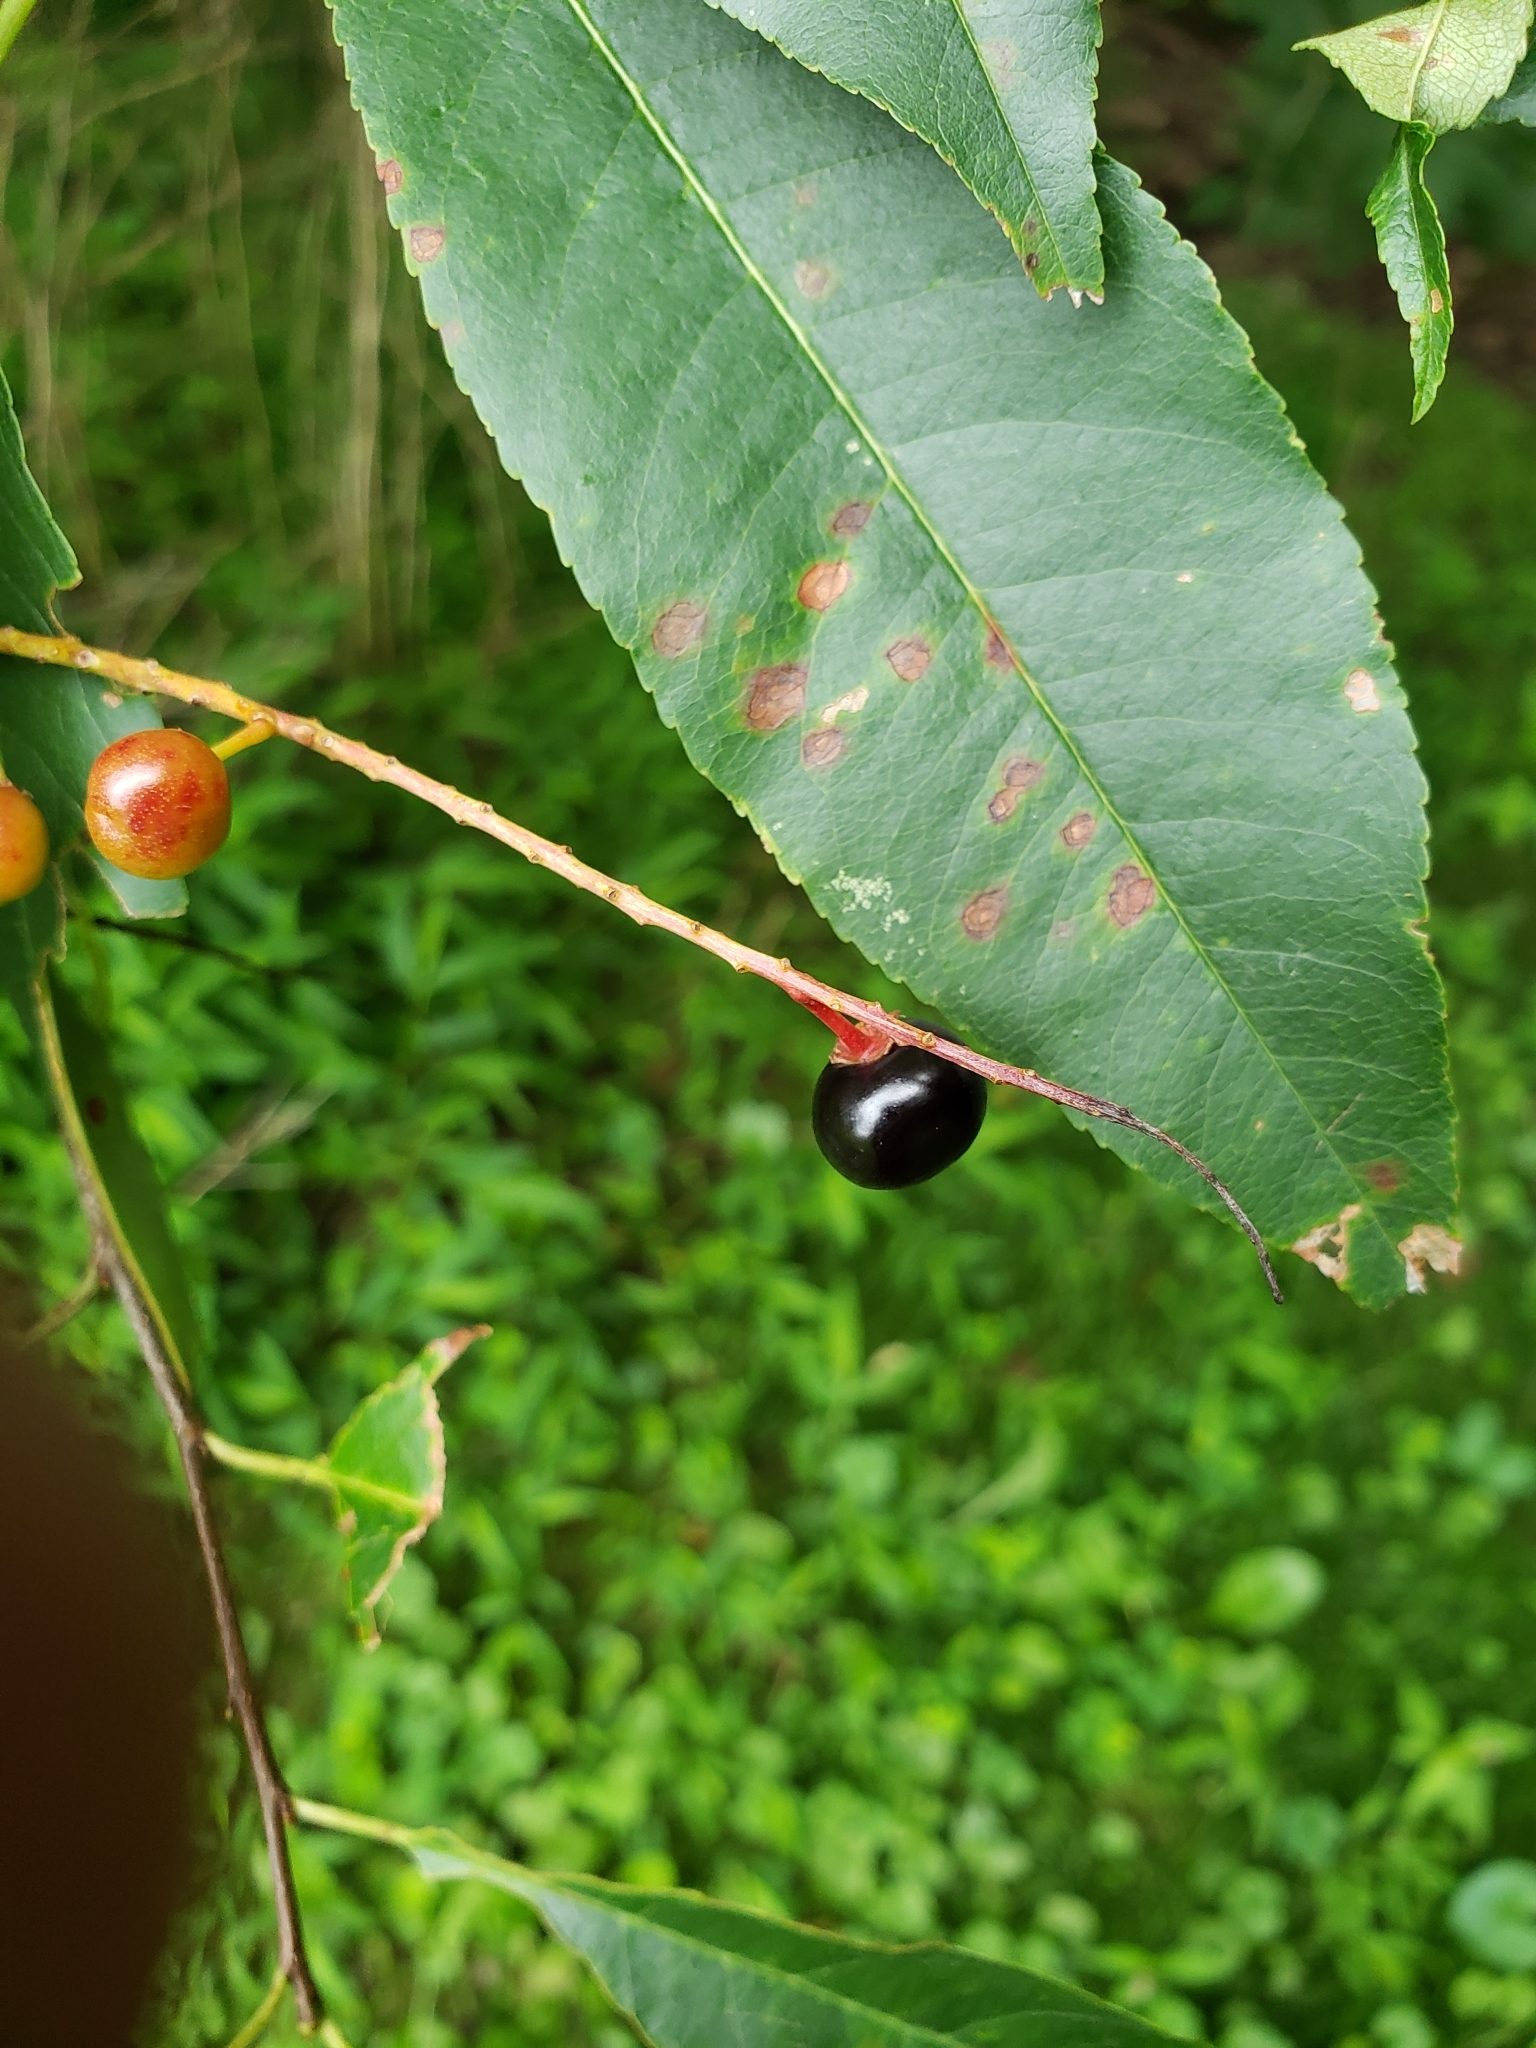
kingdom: Plantae
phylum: Tracheophyta
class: Magnoliopsida
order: Rosales
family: Rosaceae
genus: Prunus
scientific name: Prunus serotina
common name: Black cherry
